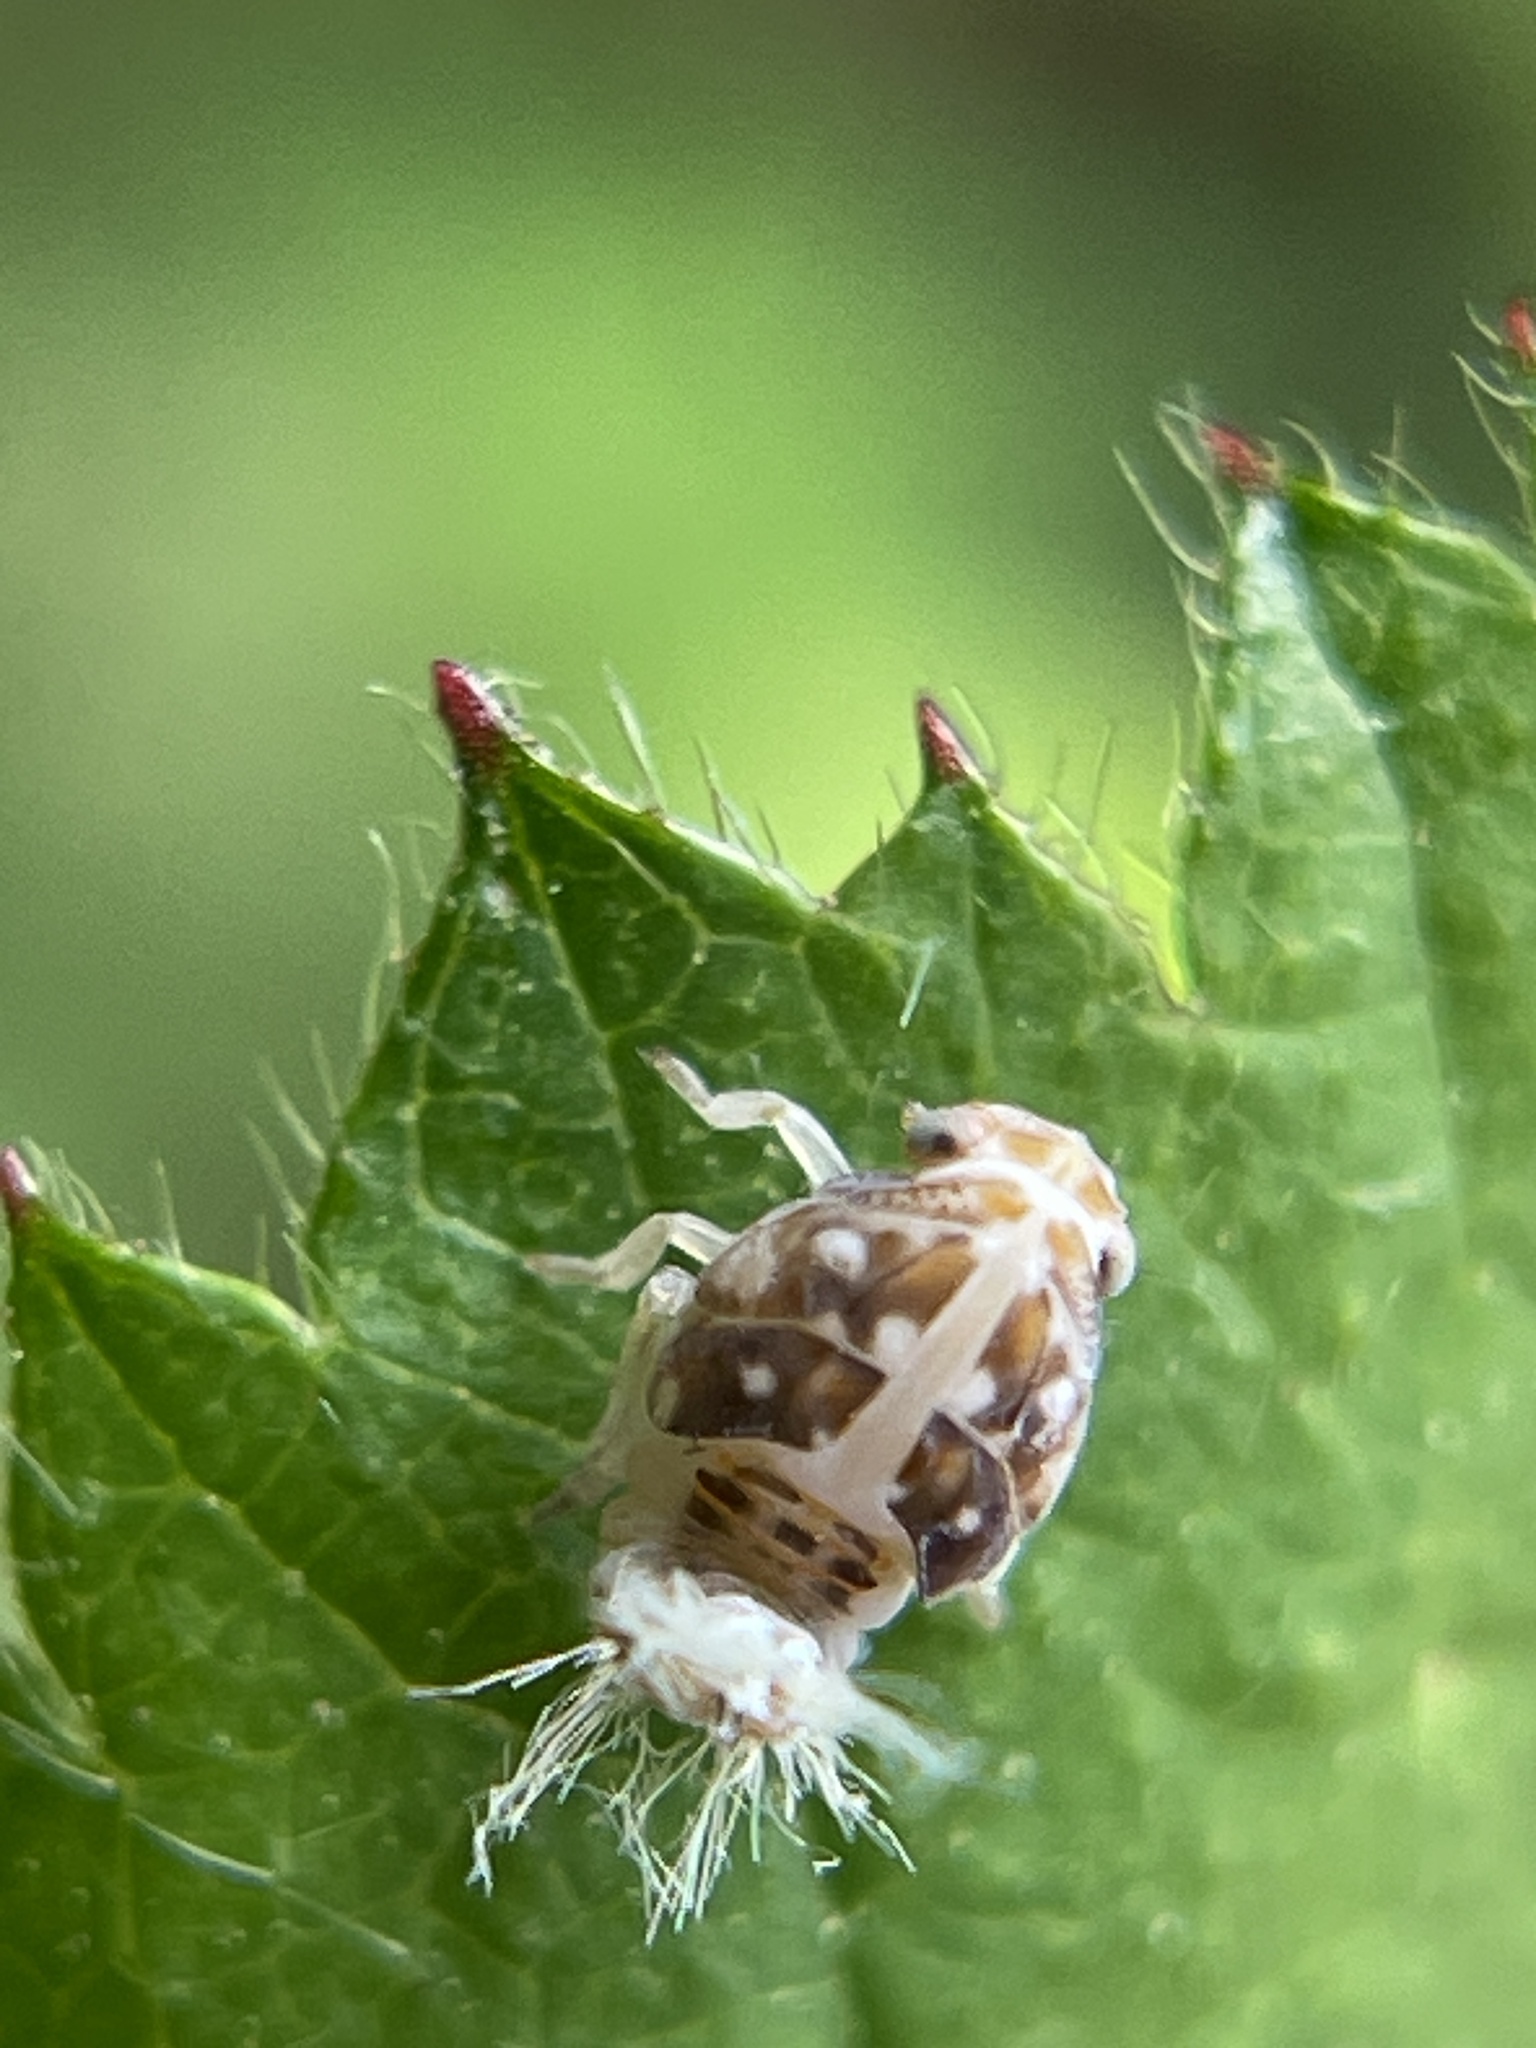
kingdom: Animalia
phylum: Arthropoda
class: Insecta
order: Hemiptera
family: Ricaniidae
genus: Scolypopa
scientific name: Scolypopa australis
